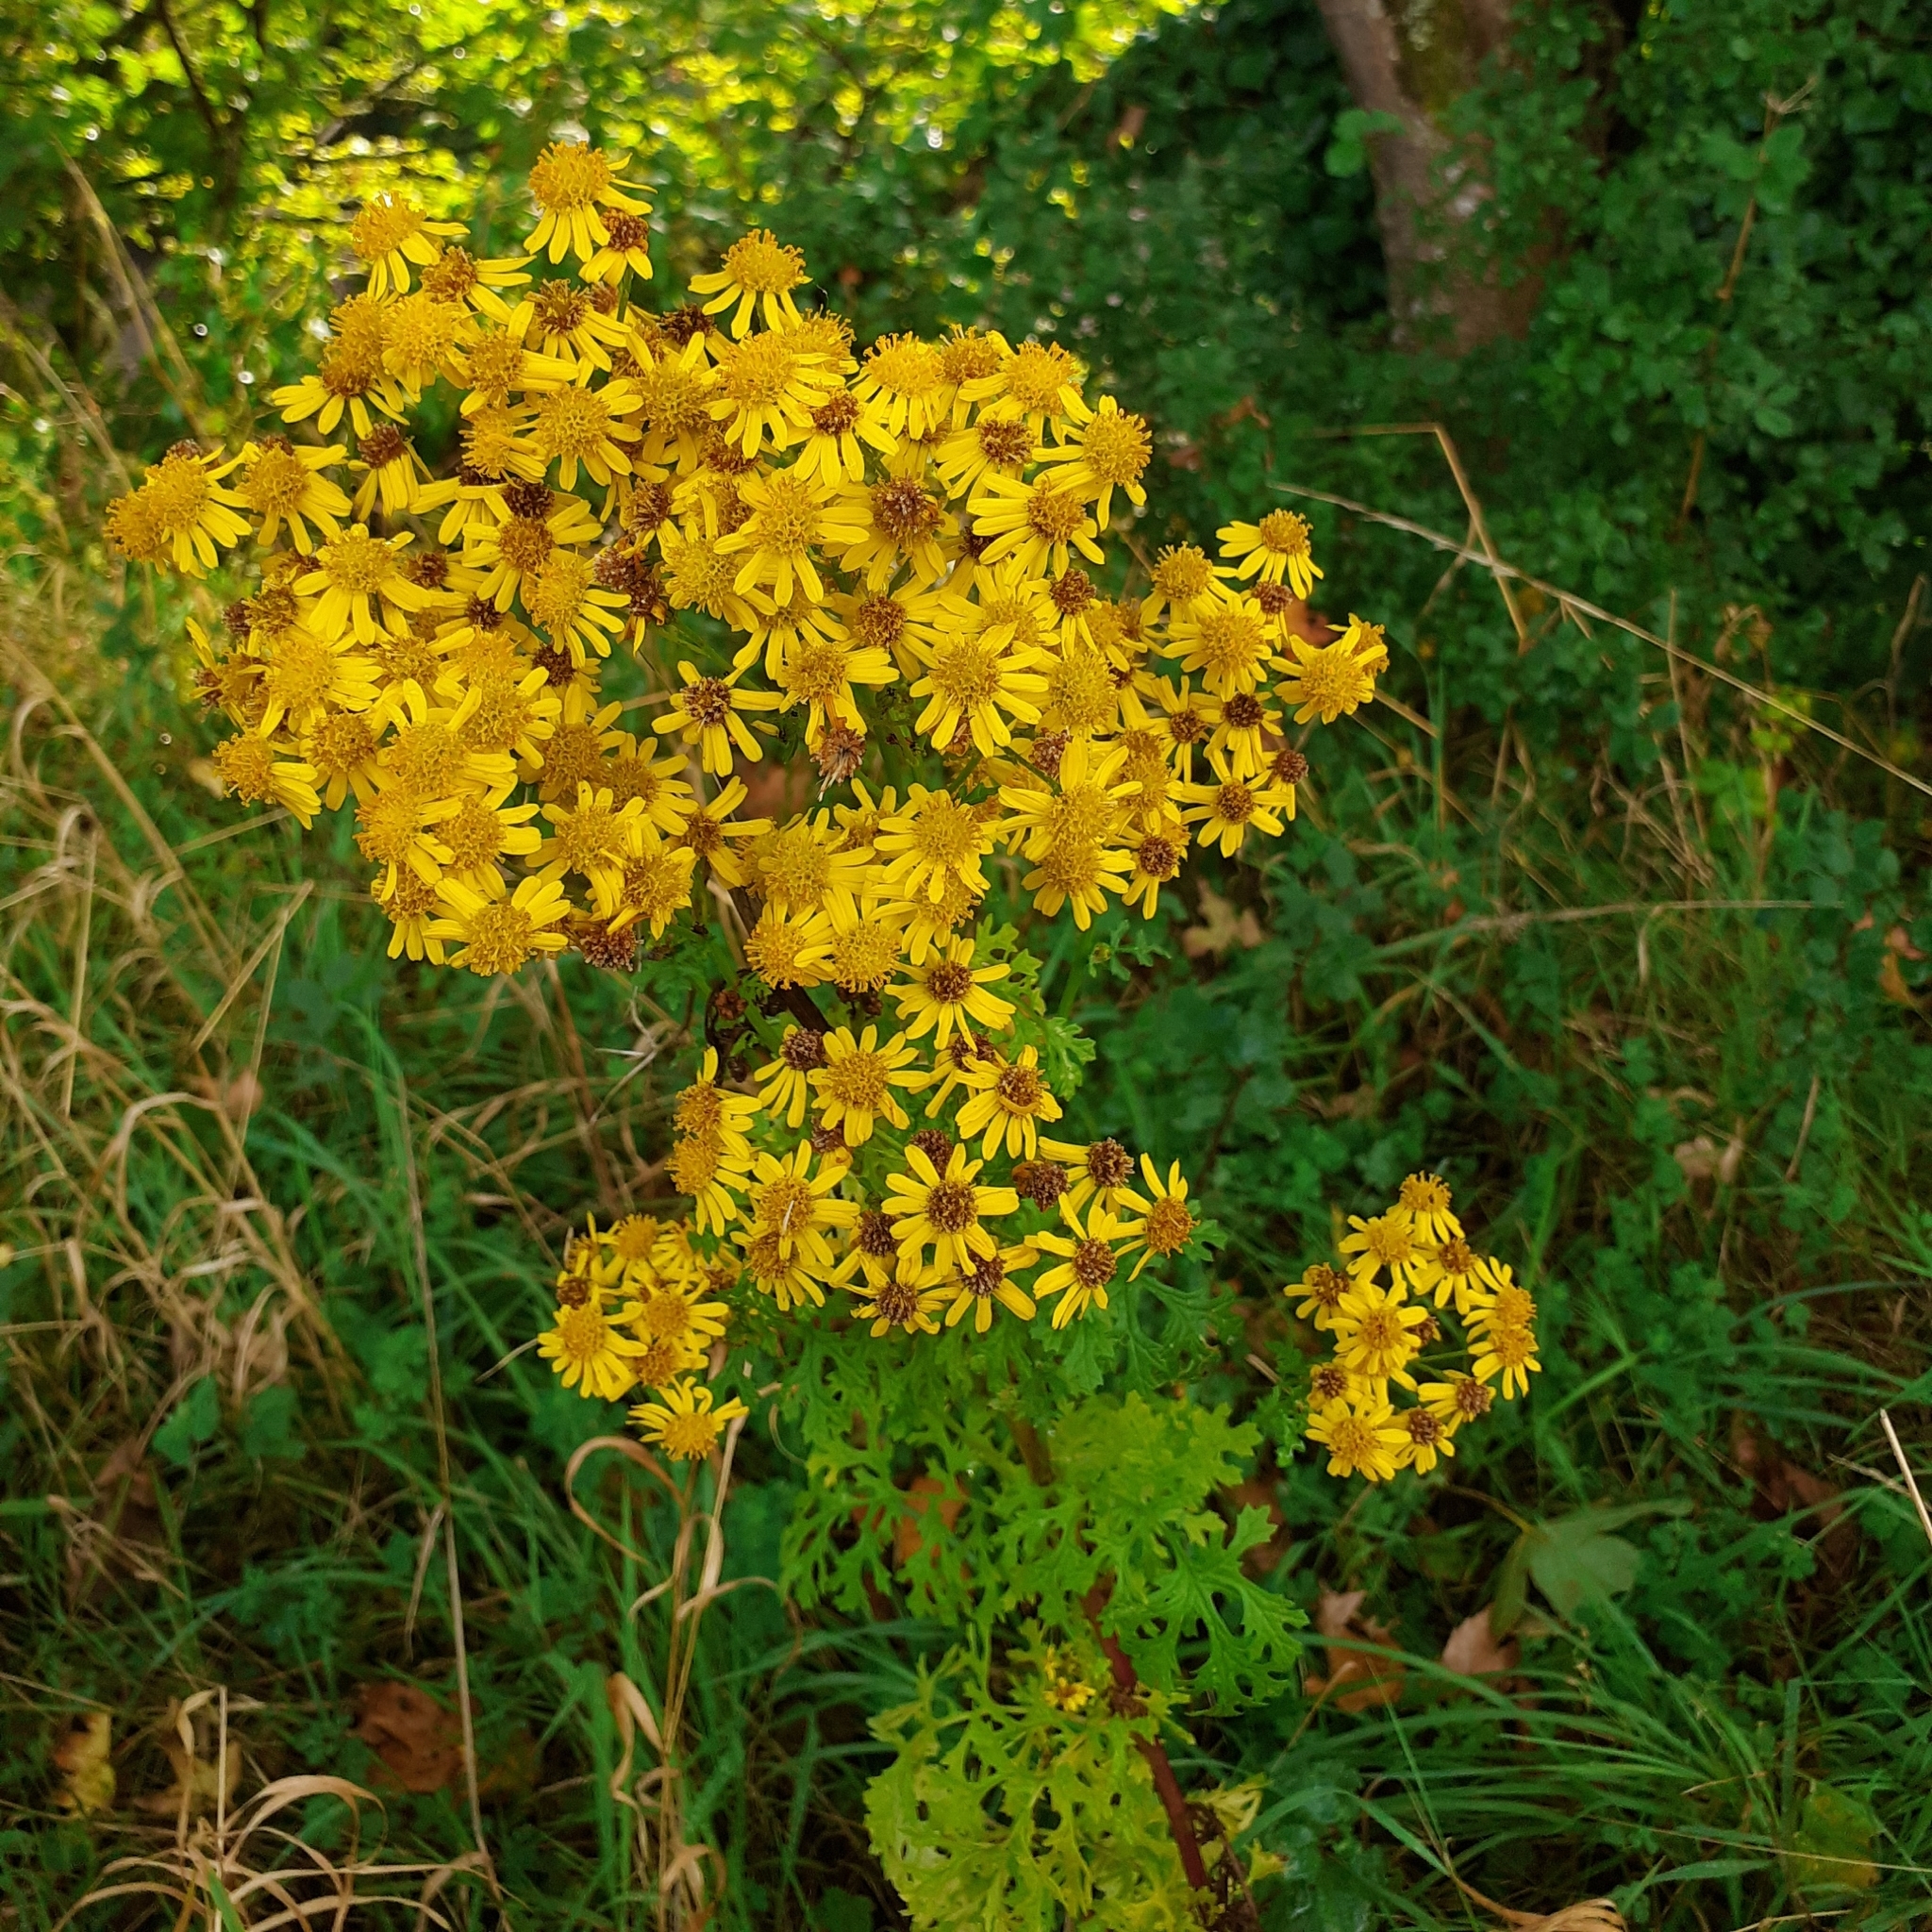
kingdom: Plantae
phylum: Tracheophyta
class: Magnoliopsida
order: Asterales
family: Asteraceae
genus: Jacobaea
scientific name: Jacobaea vulgaris
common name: Stinking willie
